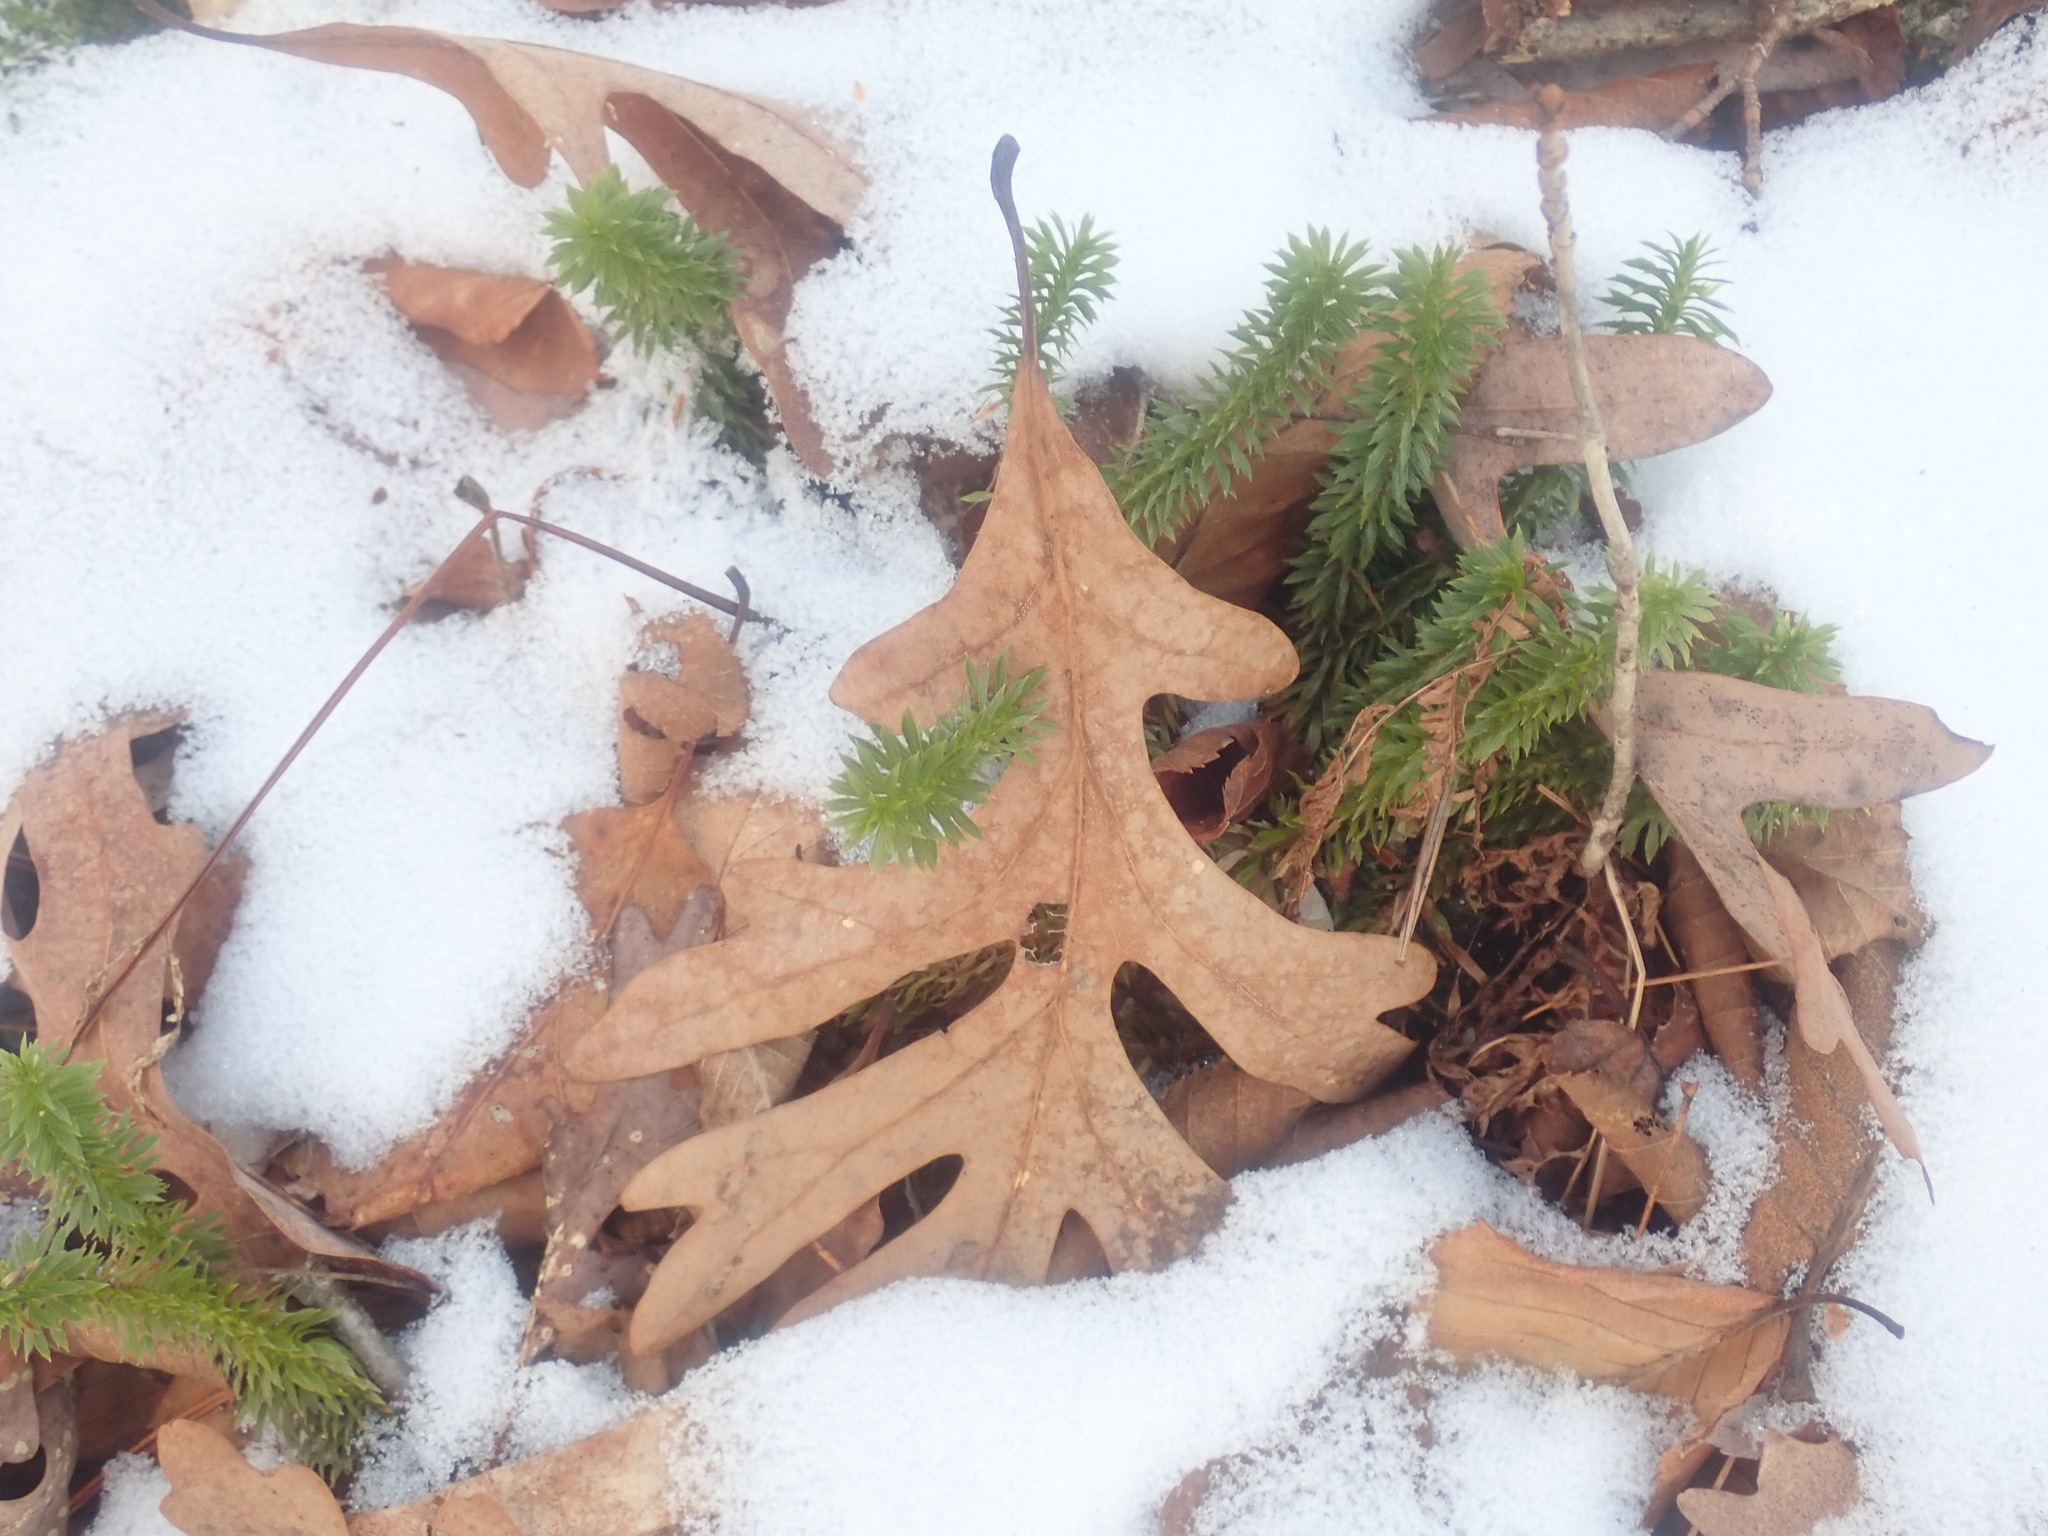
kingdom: Plantae
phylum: Tracheophyta
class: Magnoliopsida
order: Fagales
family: Fagaceae
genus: Quercus
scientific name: Quercus alba
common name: White oak
